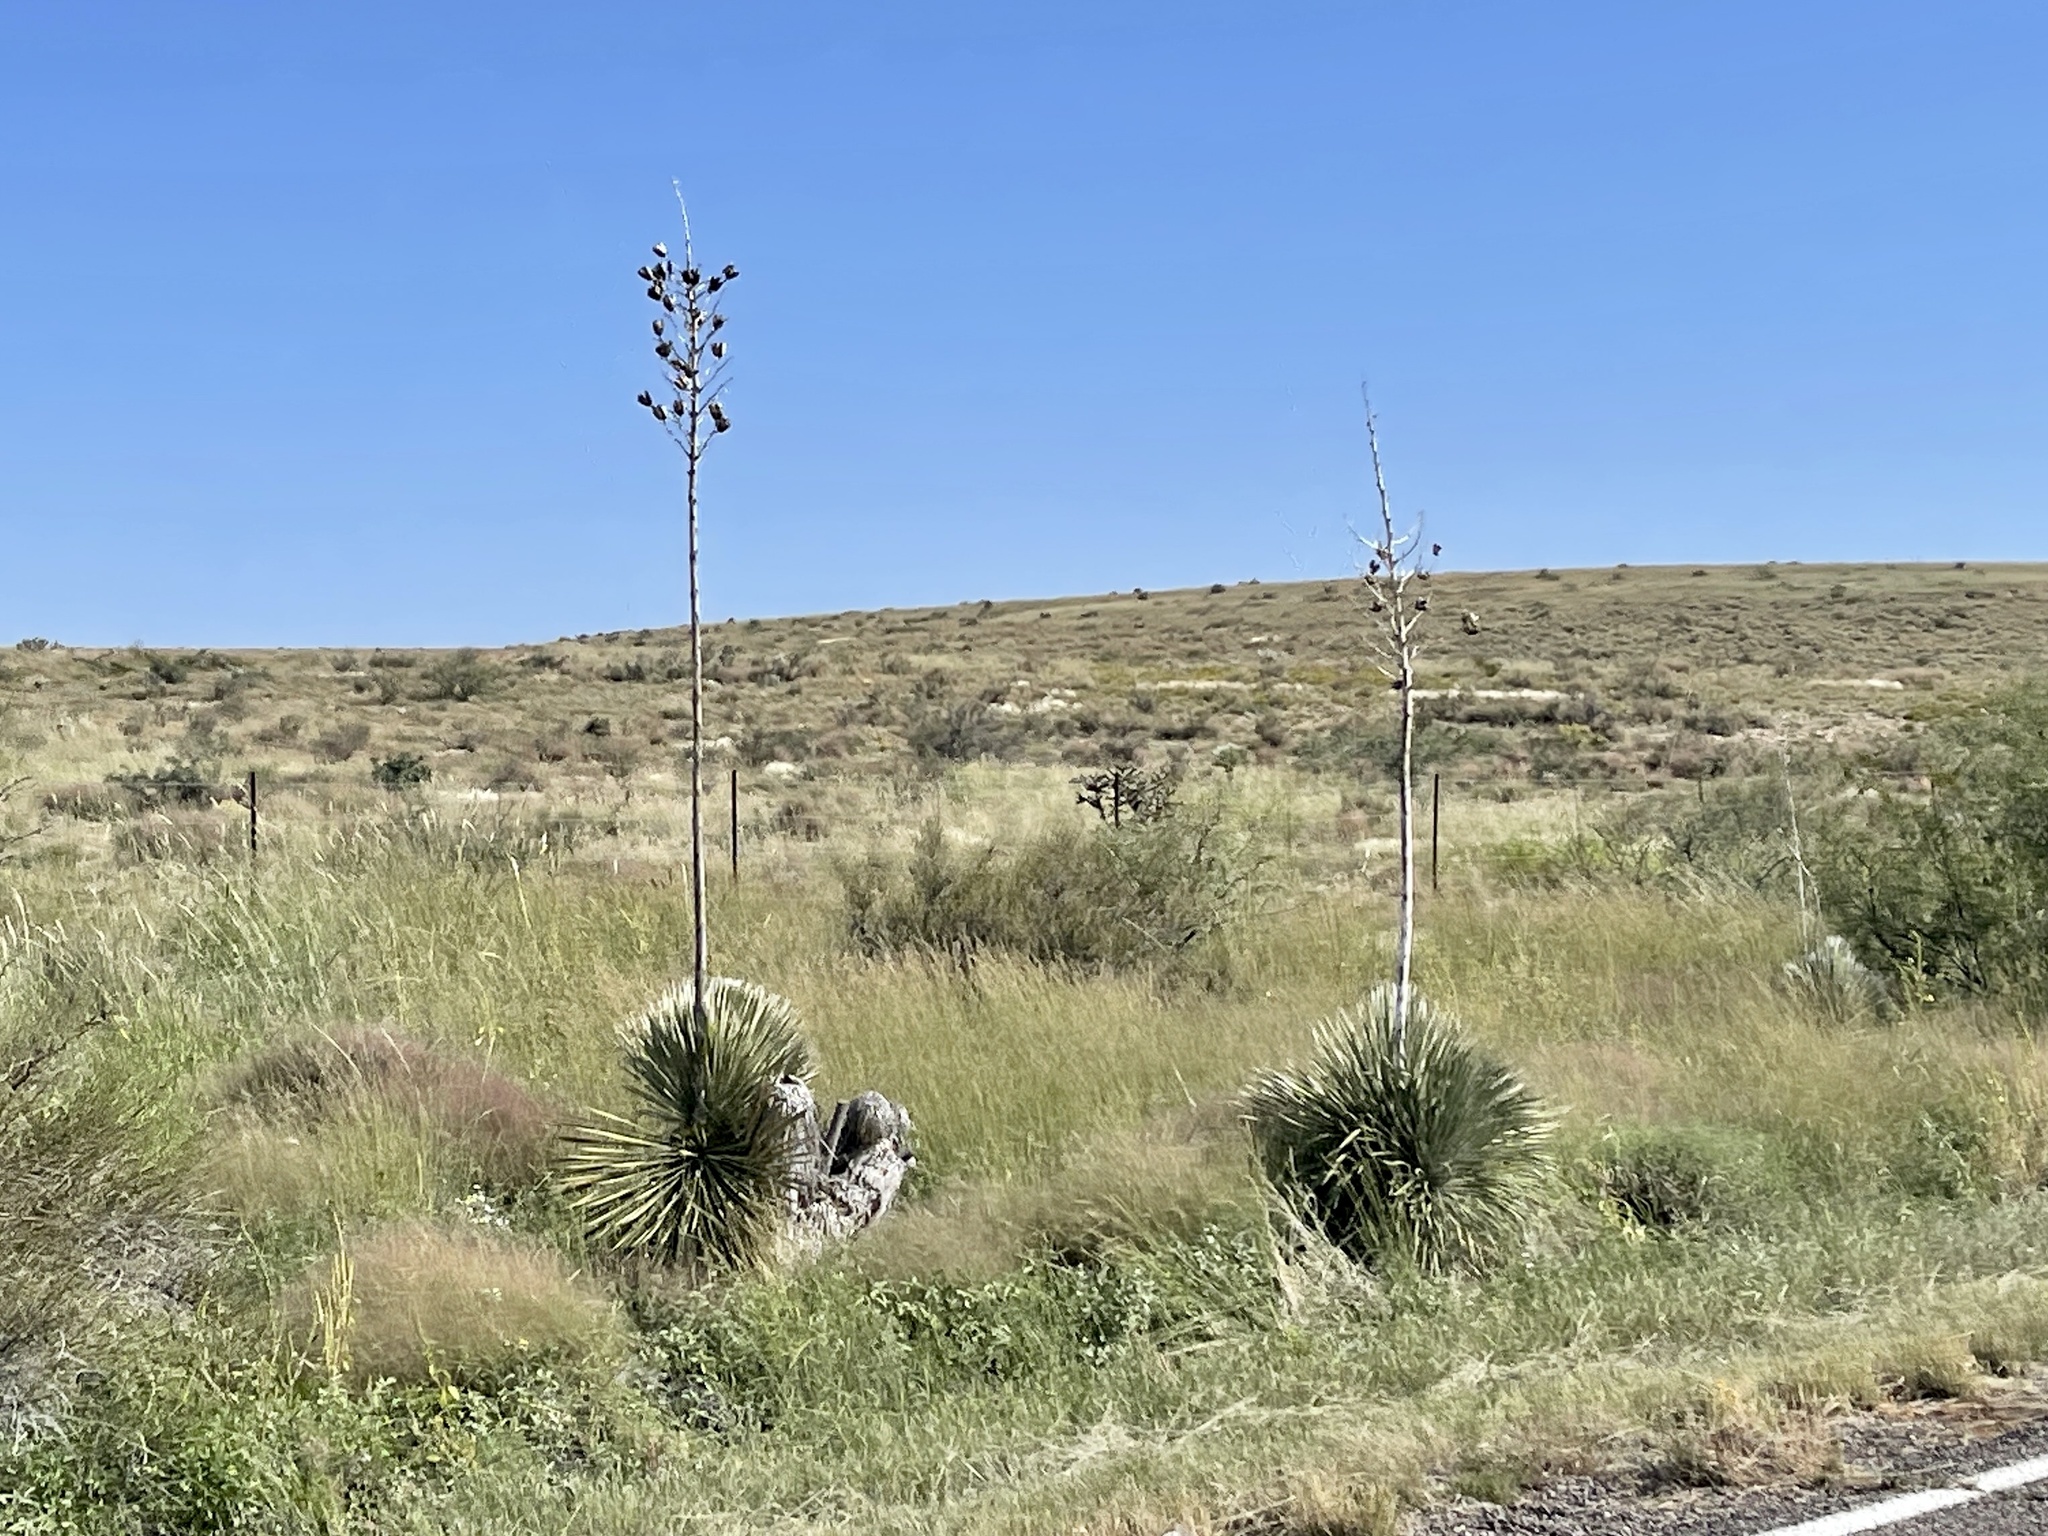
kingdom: Plantae
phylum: Tracheophyta
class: Liliopsida
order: Asparagales
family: Asparagaceae
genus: Yucca
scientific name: Yucca elata
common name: Palmella
